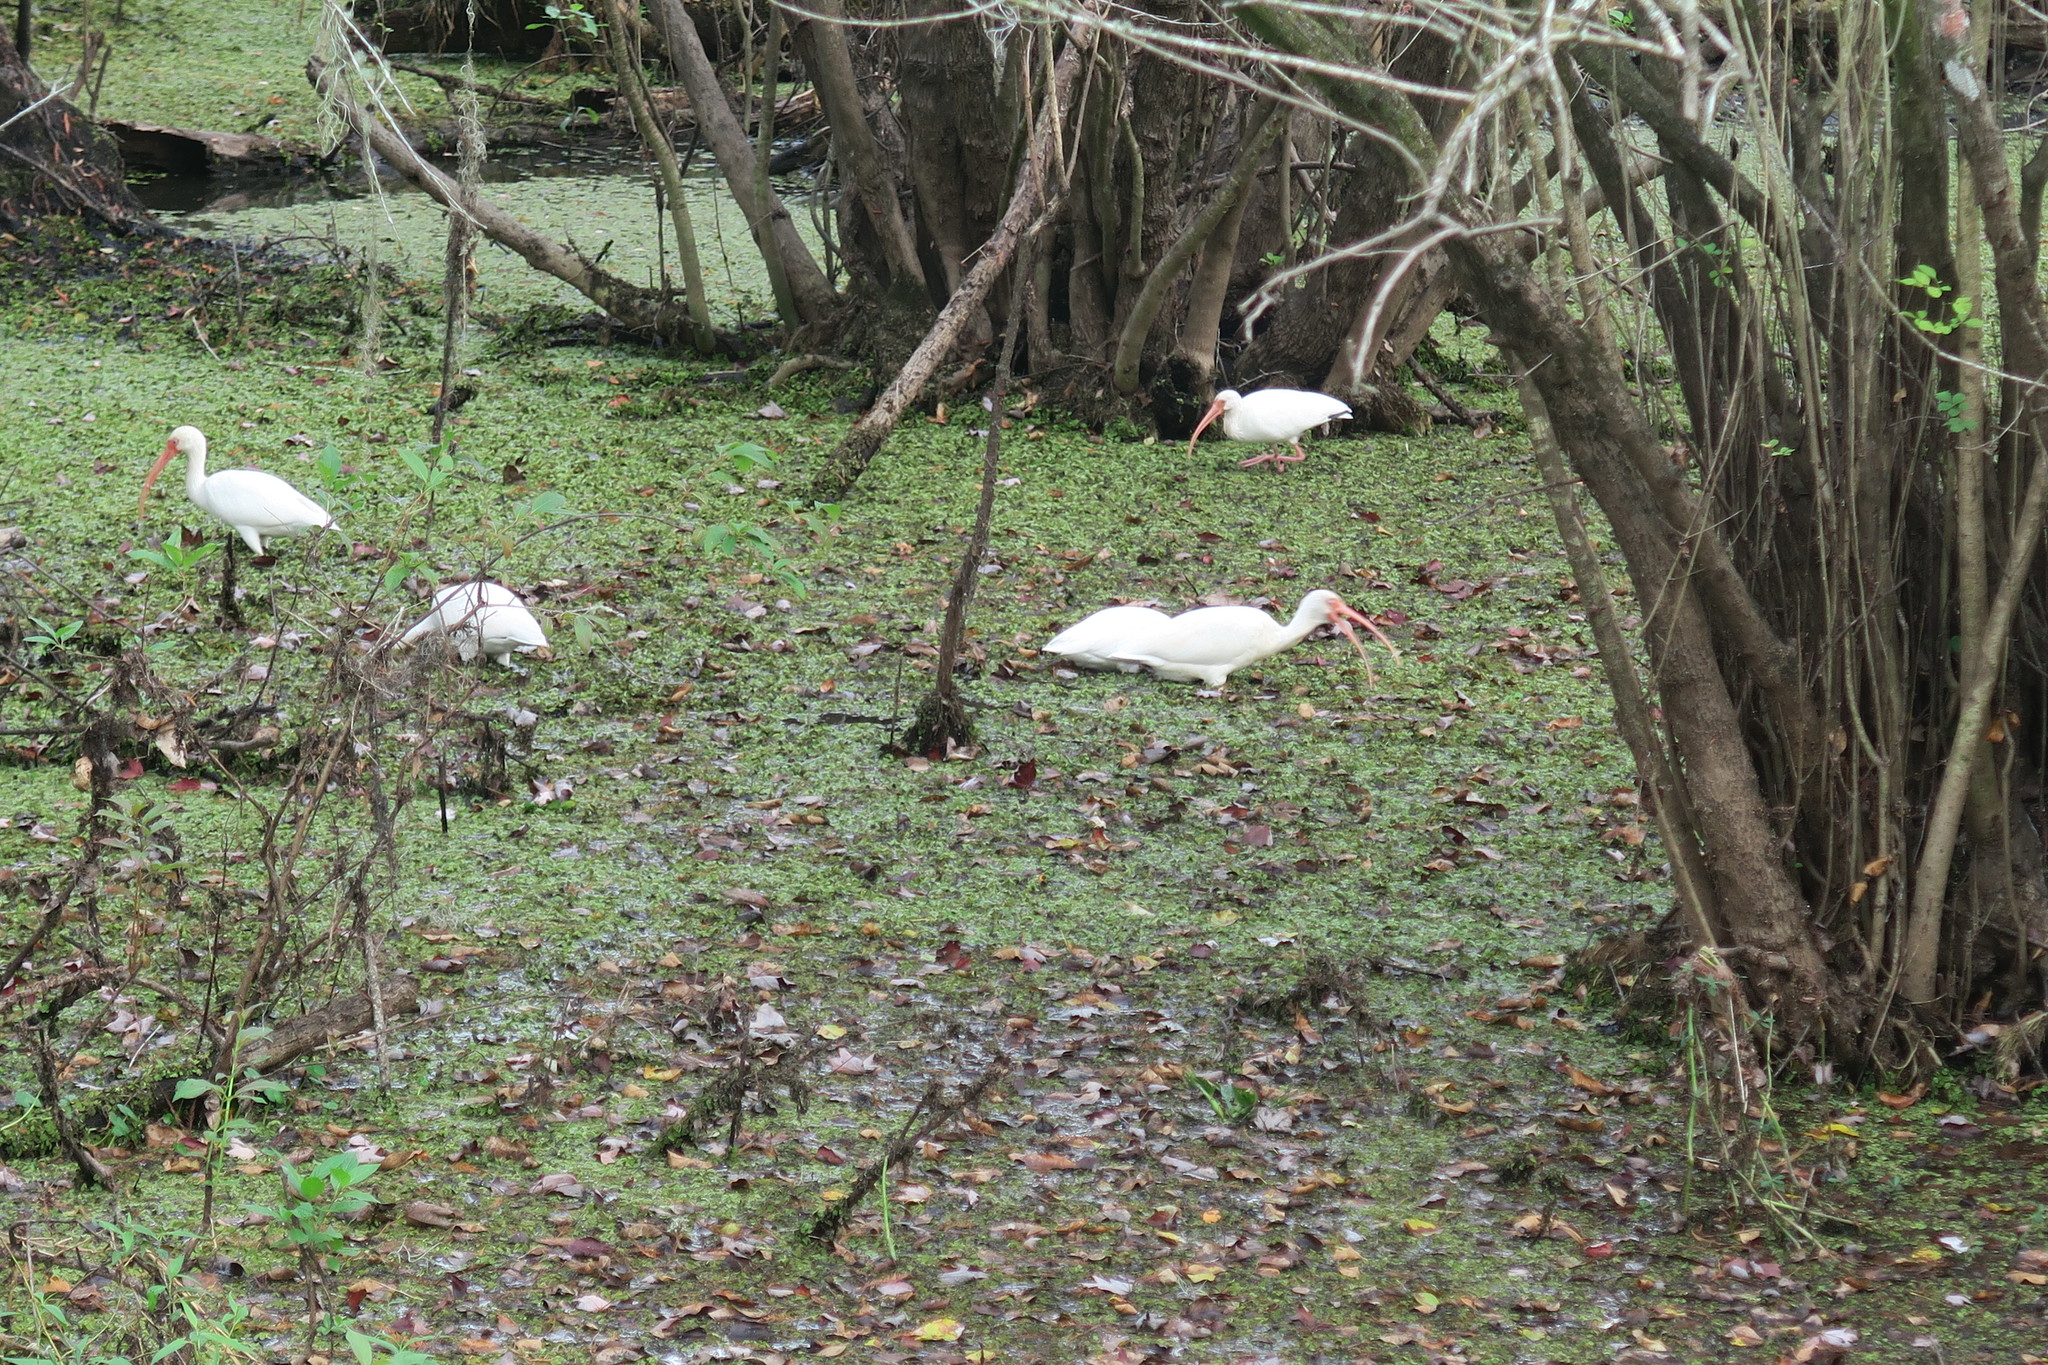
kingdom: Animalia
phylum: Chordata
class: Aves
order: Pelecaniformes
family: Threskiornithidae
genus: Eudocimus
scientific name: Eudocimus albus
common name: White ibis
